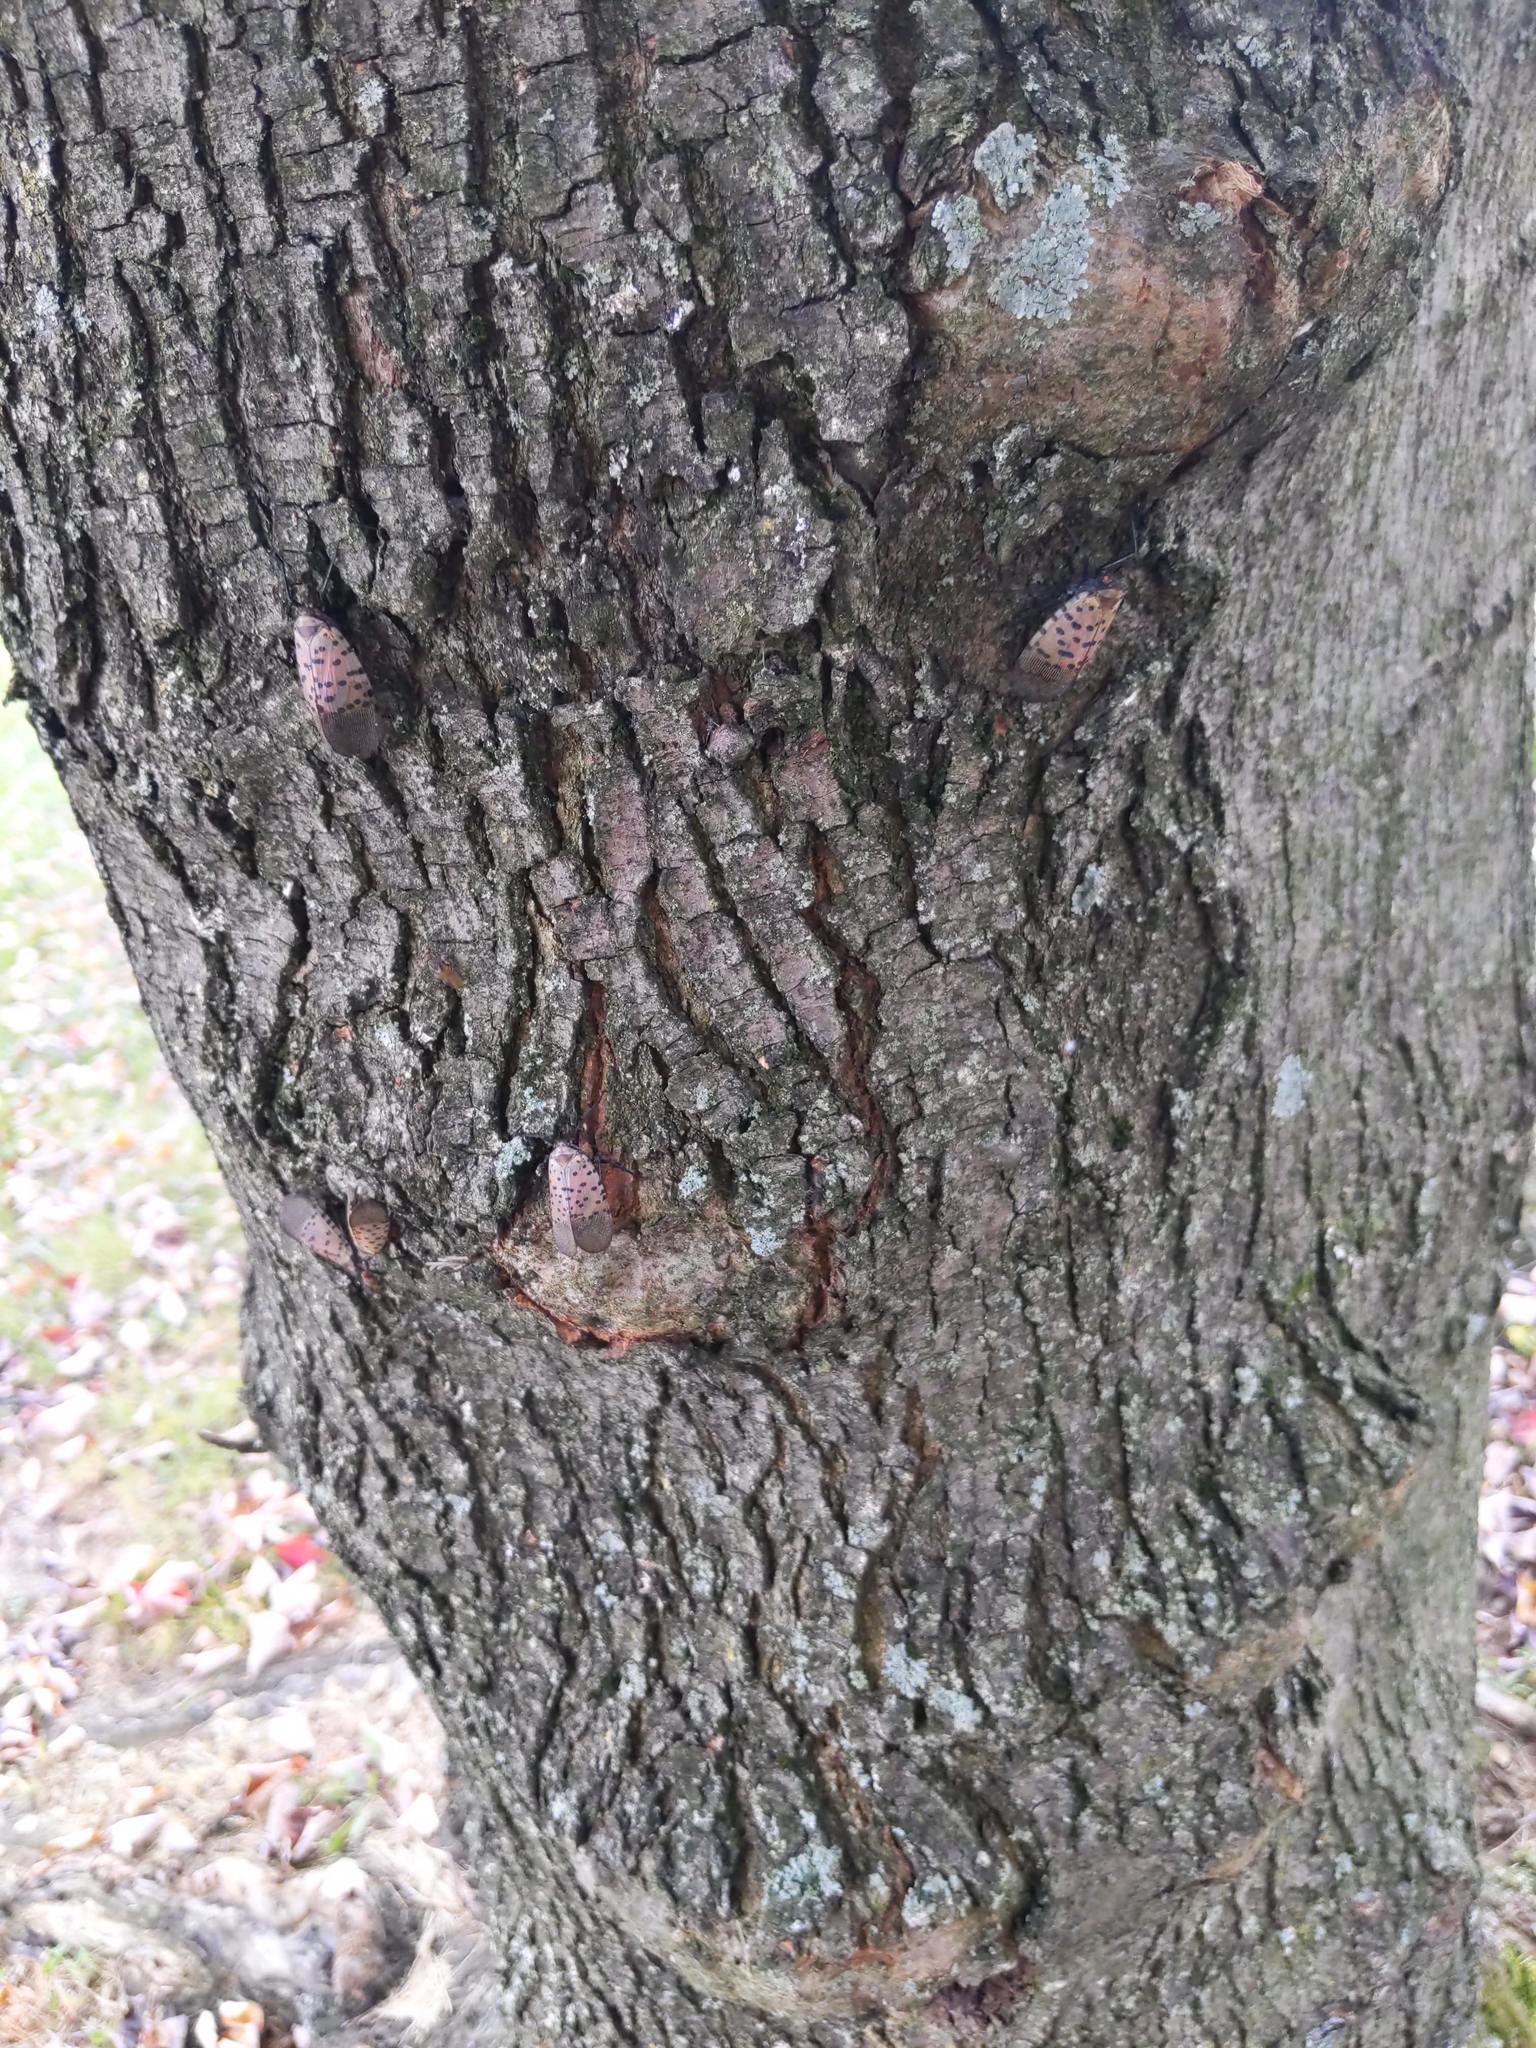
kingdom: Animalia
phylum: Arthropoda
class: Insecta
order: Hemiptera
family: Fulgoridae
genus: Lycorma
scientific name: Lycorma delicatula
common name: Spotted lanternfly
